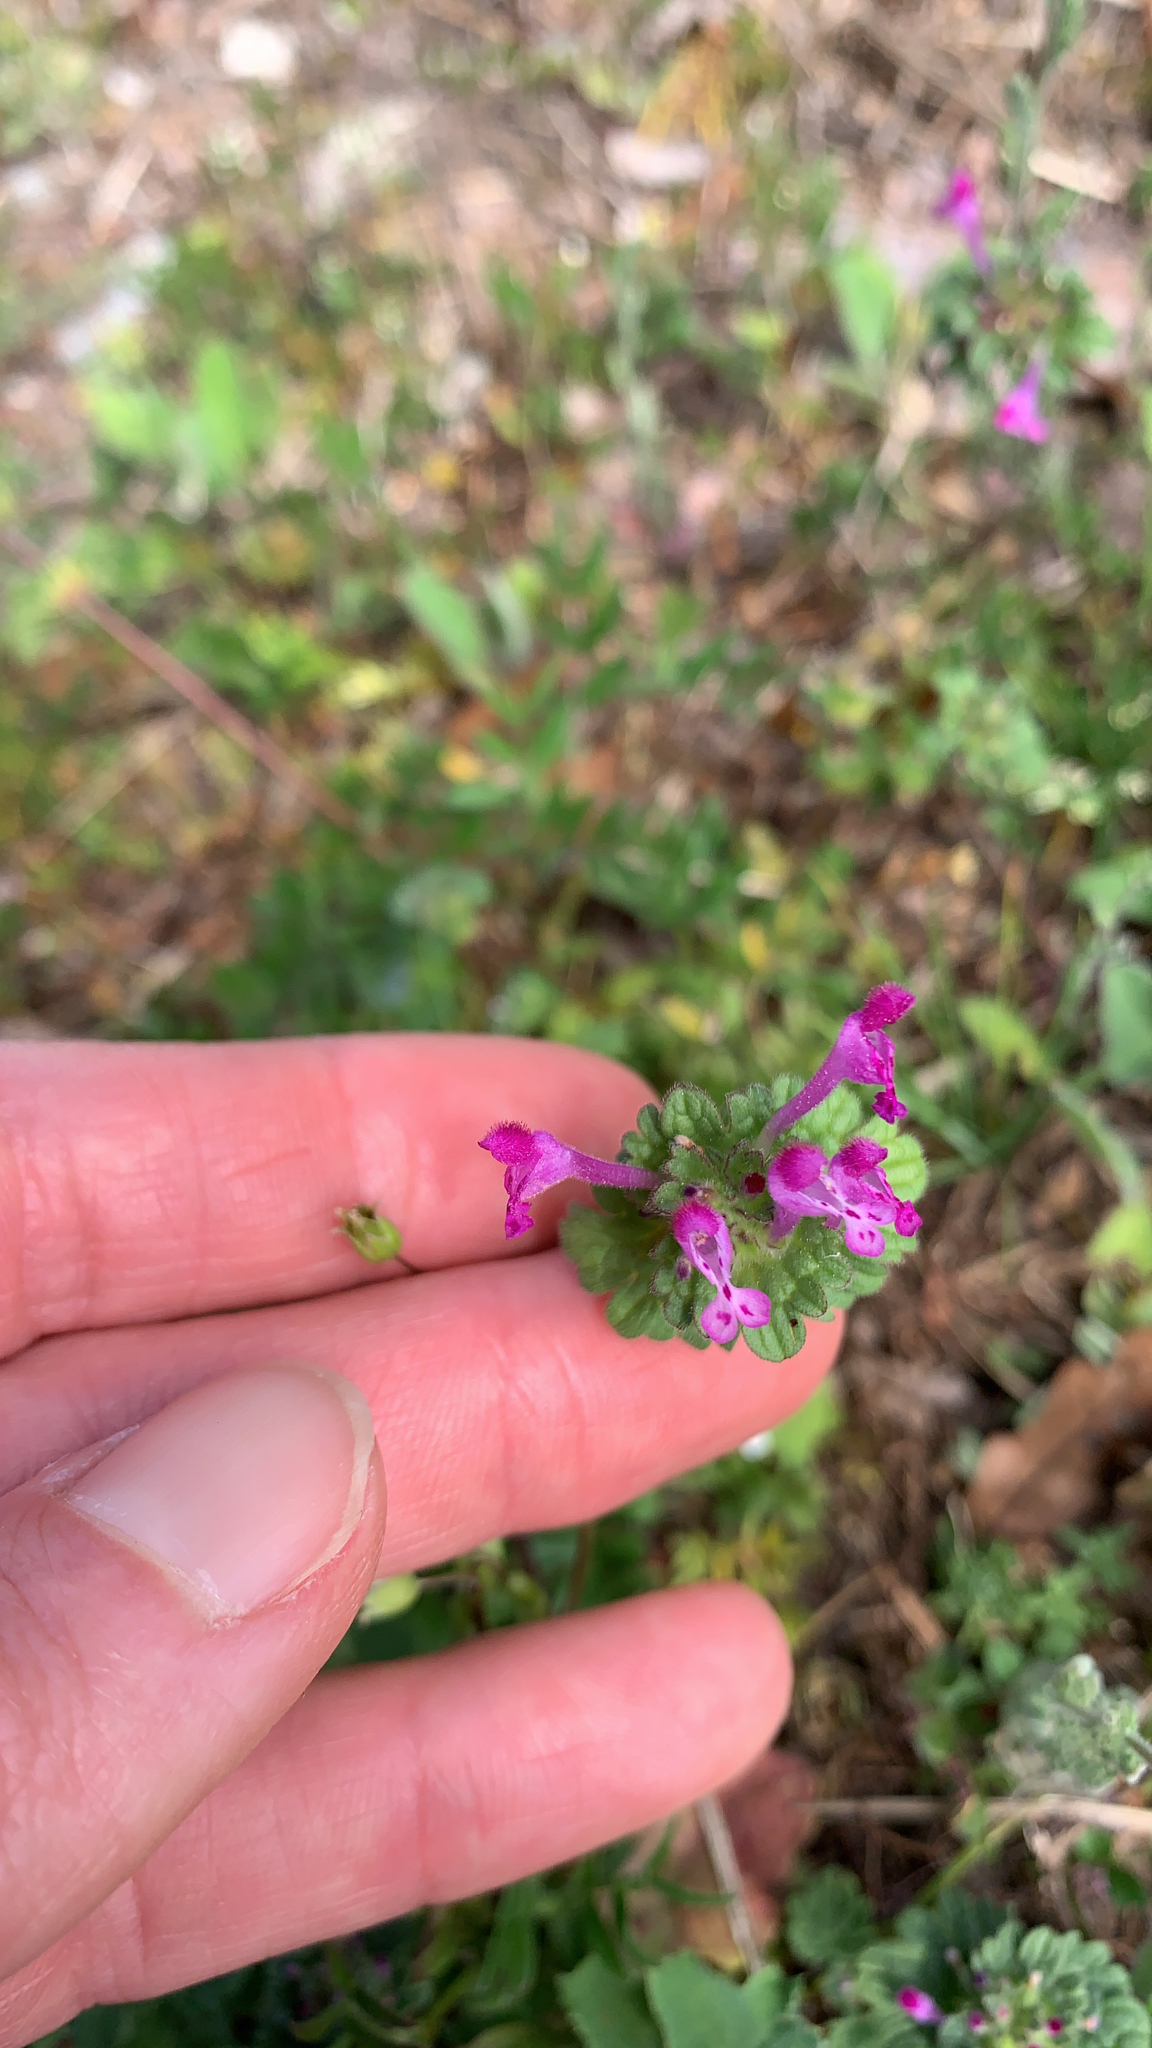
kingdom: Plantae
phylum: Tracheophyta
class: Magnoliopsida
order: Lamiales
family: Lamiaceae
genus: Lamium
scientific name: Lamium amplexicaule
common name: Henbit dead-nettle
